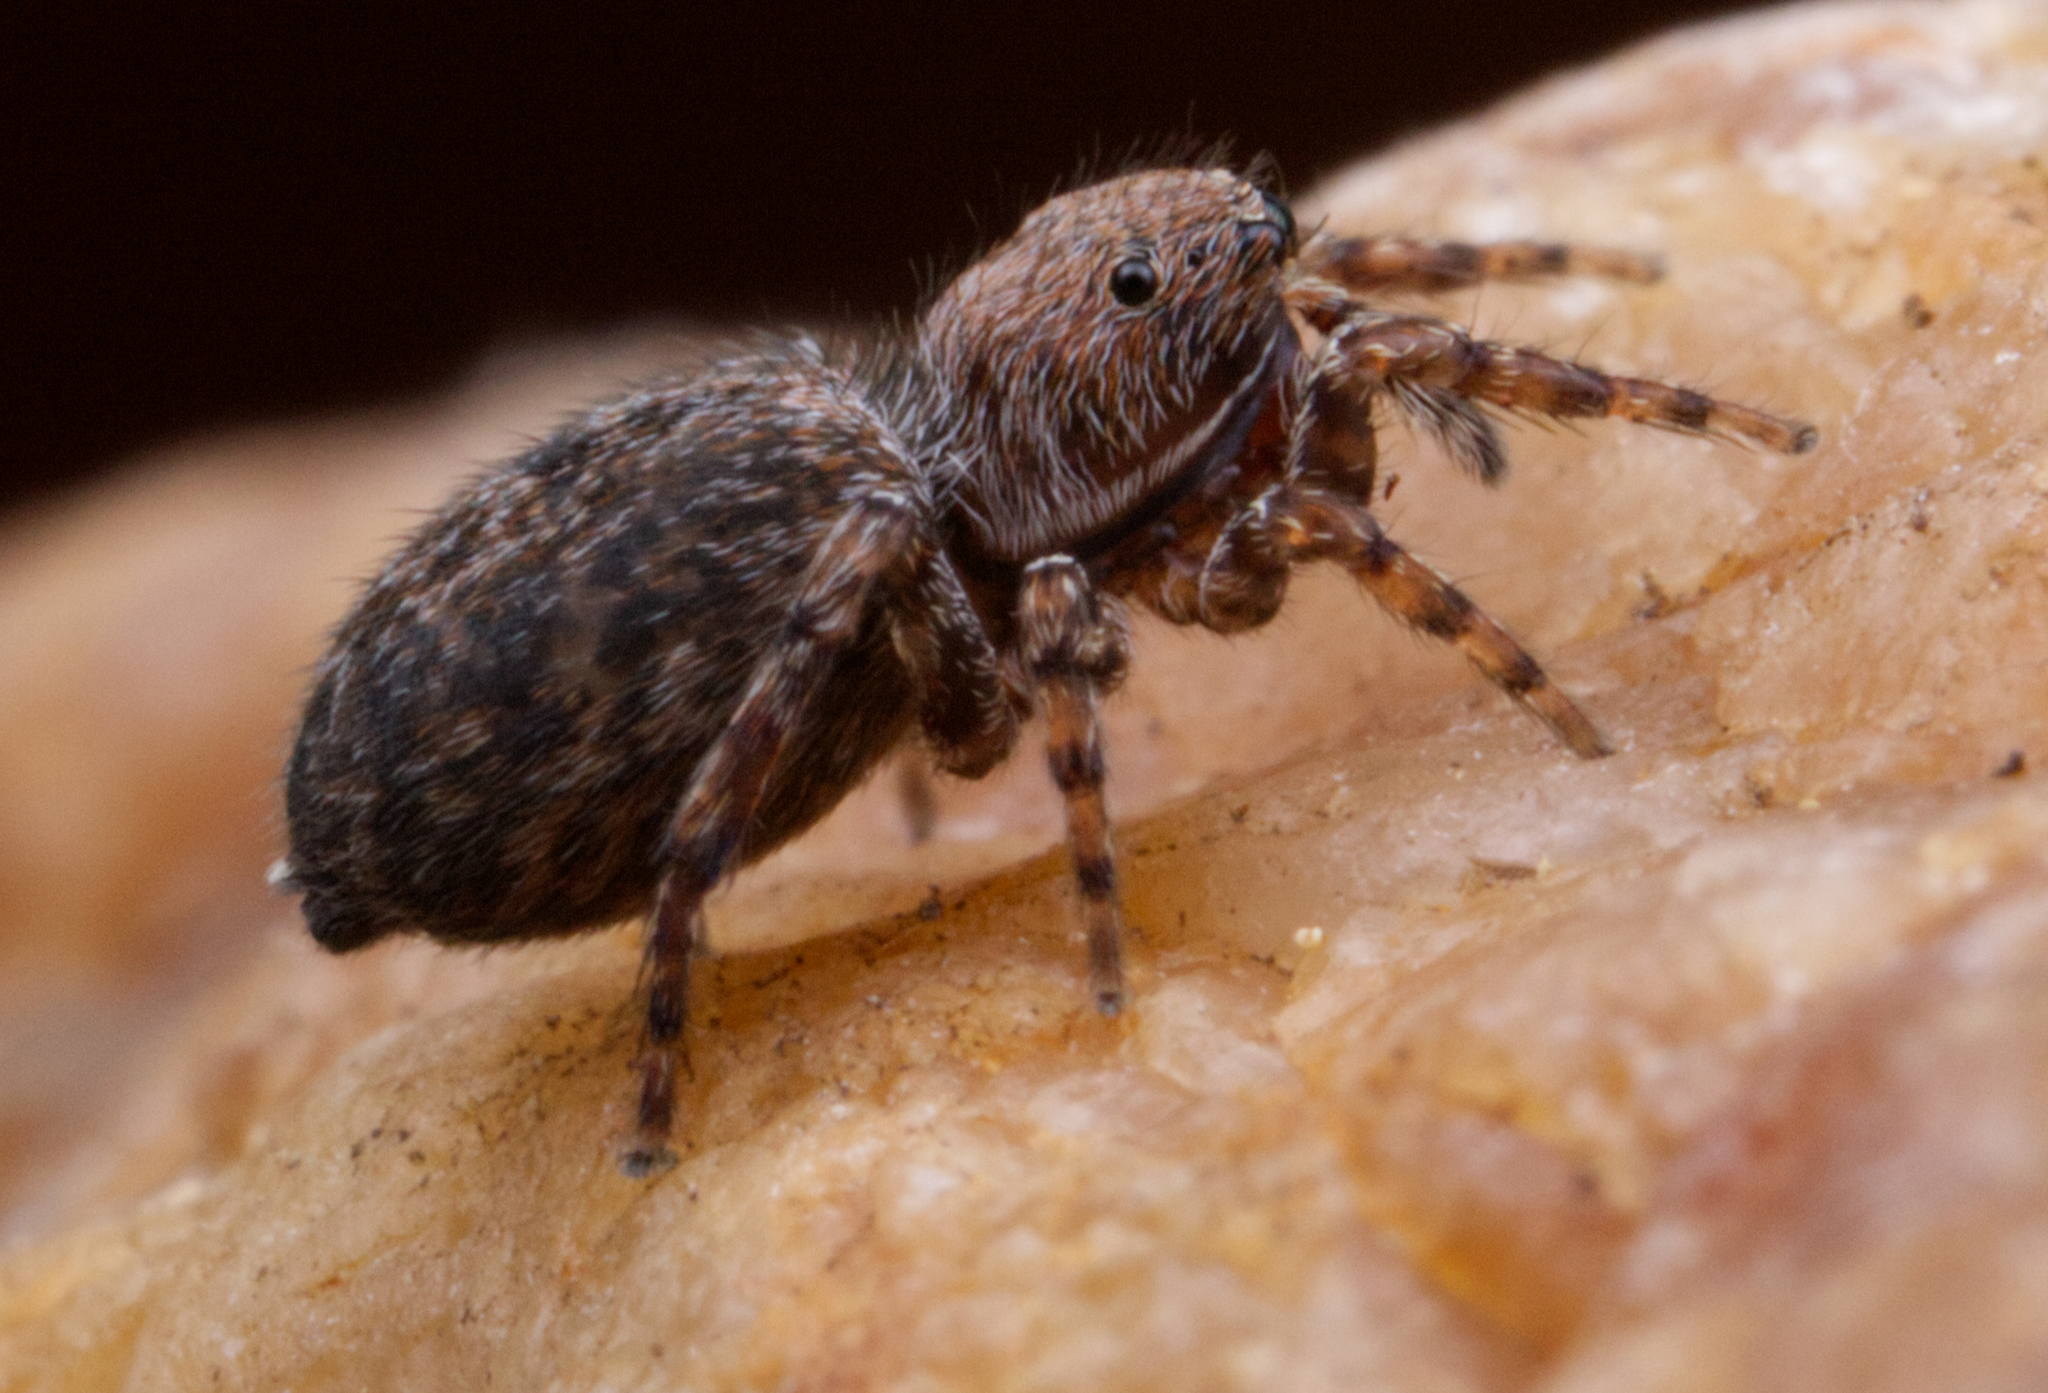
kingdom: Animalia
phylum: Arthropoda
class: Arachnida
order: Araneae
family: Salticidae
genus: Attinella
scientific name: Attinella concolor
